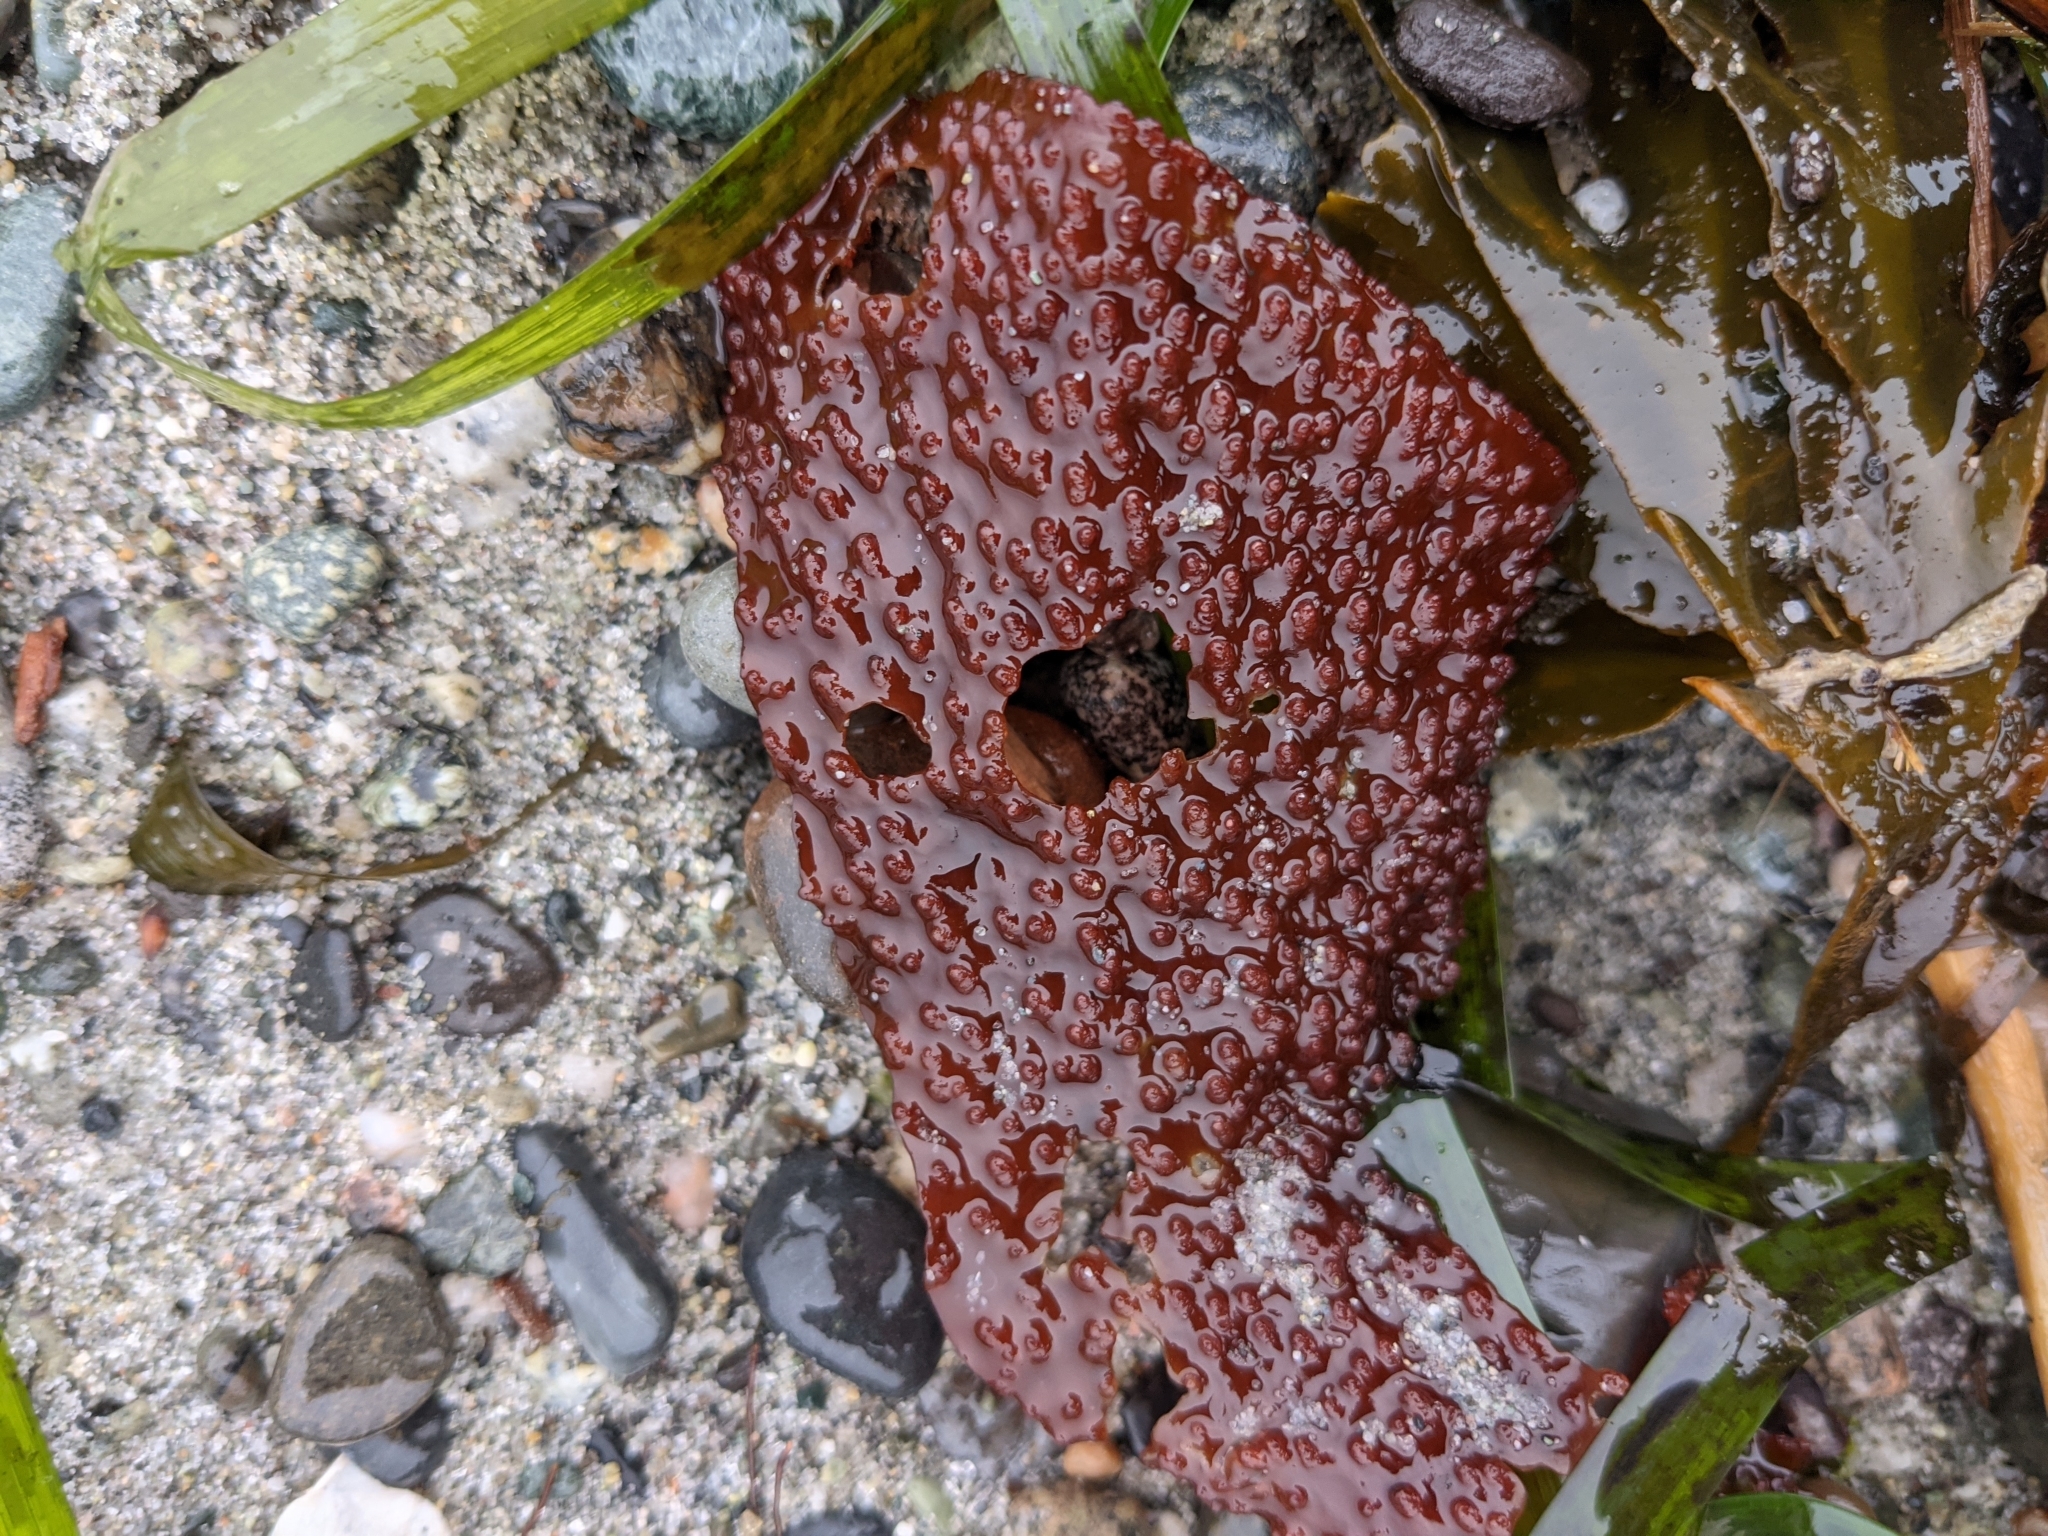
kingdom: Plantae
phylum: Rhodophyta
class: Florideophyceae
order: Gigartinales
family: Gigartinaceae
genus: Chondracanthus
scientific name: Chondracanthus exasperatus
